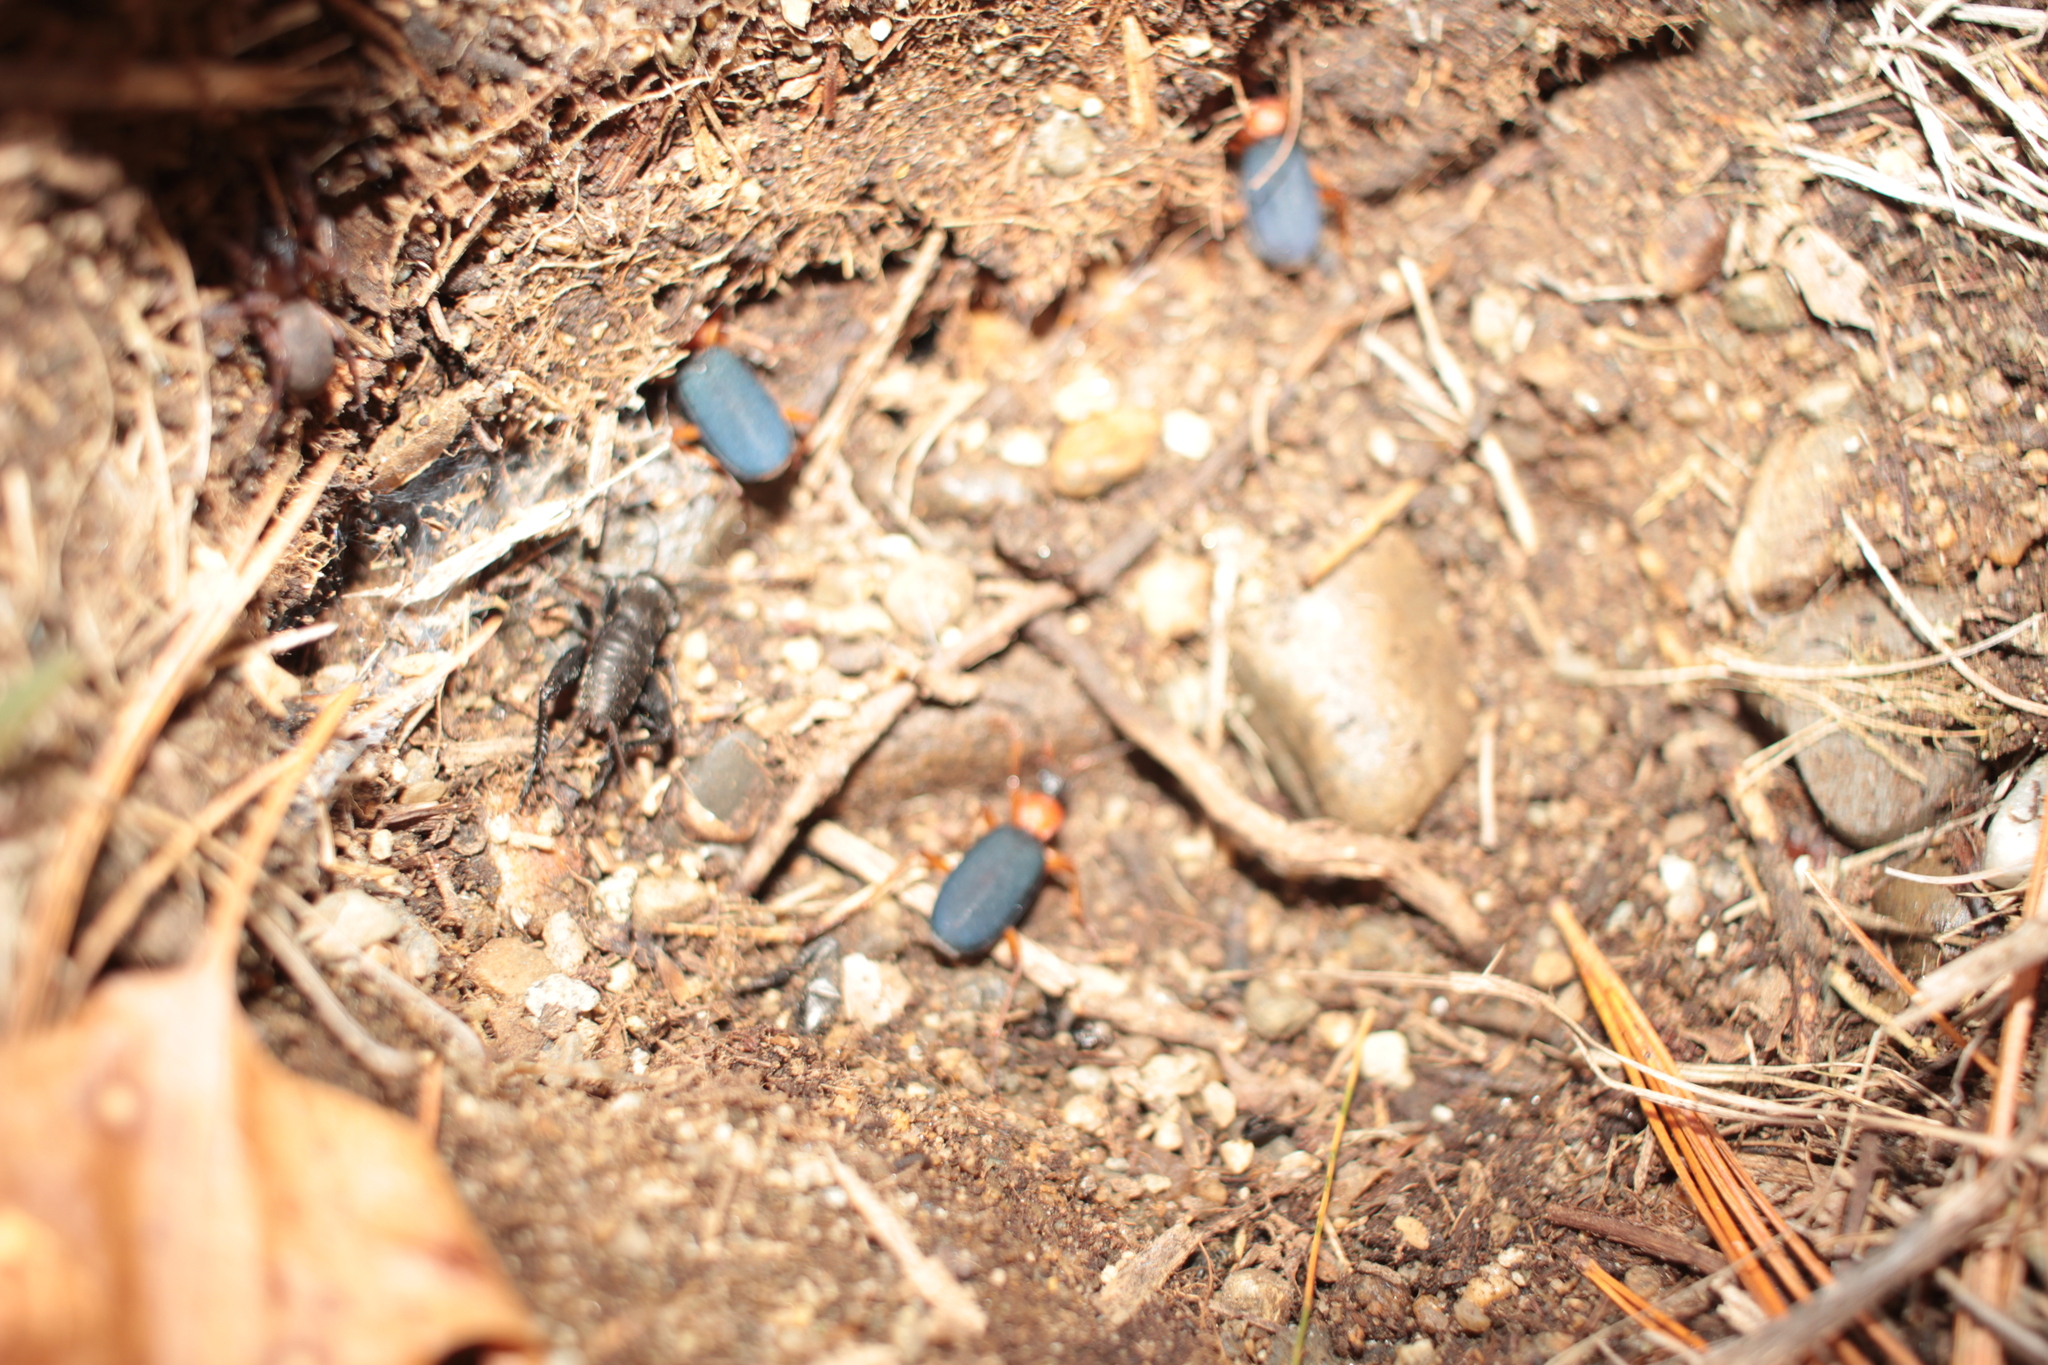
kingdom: Animalia
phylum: Arthropoda
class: Insecta
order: Orthoptera
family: Gryllidae
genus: Gryllus
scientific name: Gryllus veletis
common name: Spring field cricket
